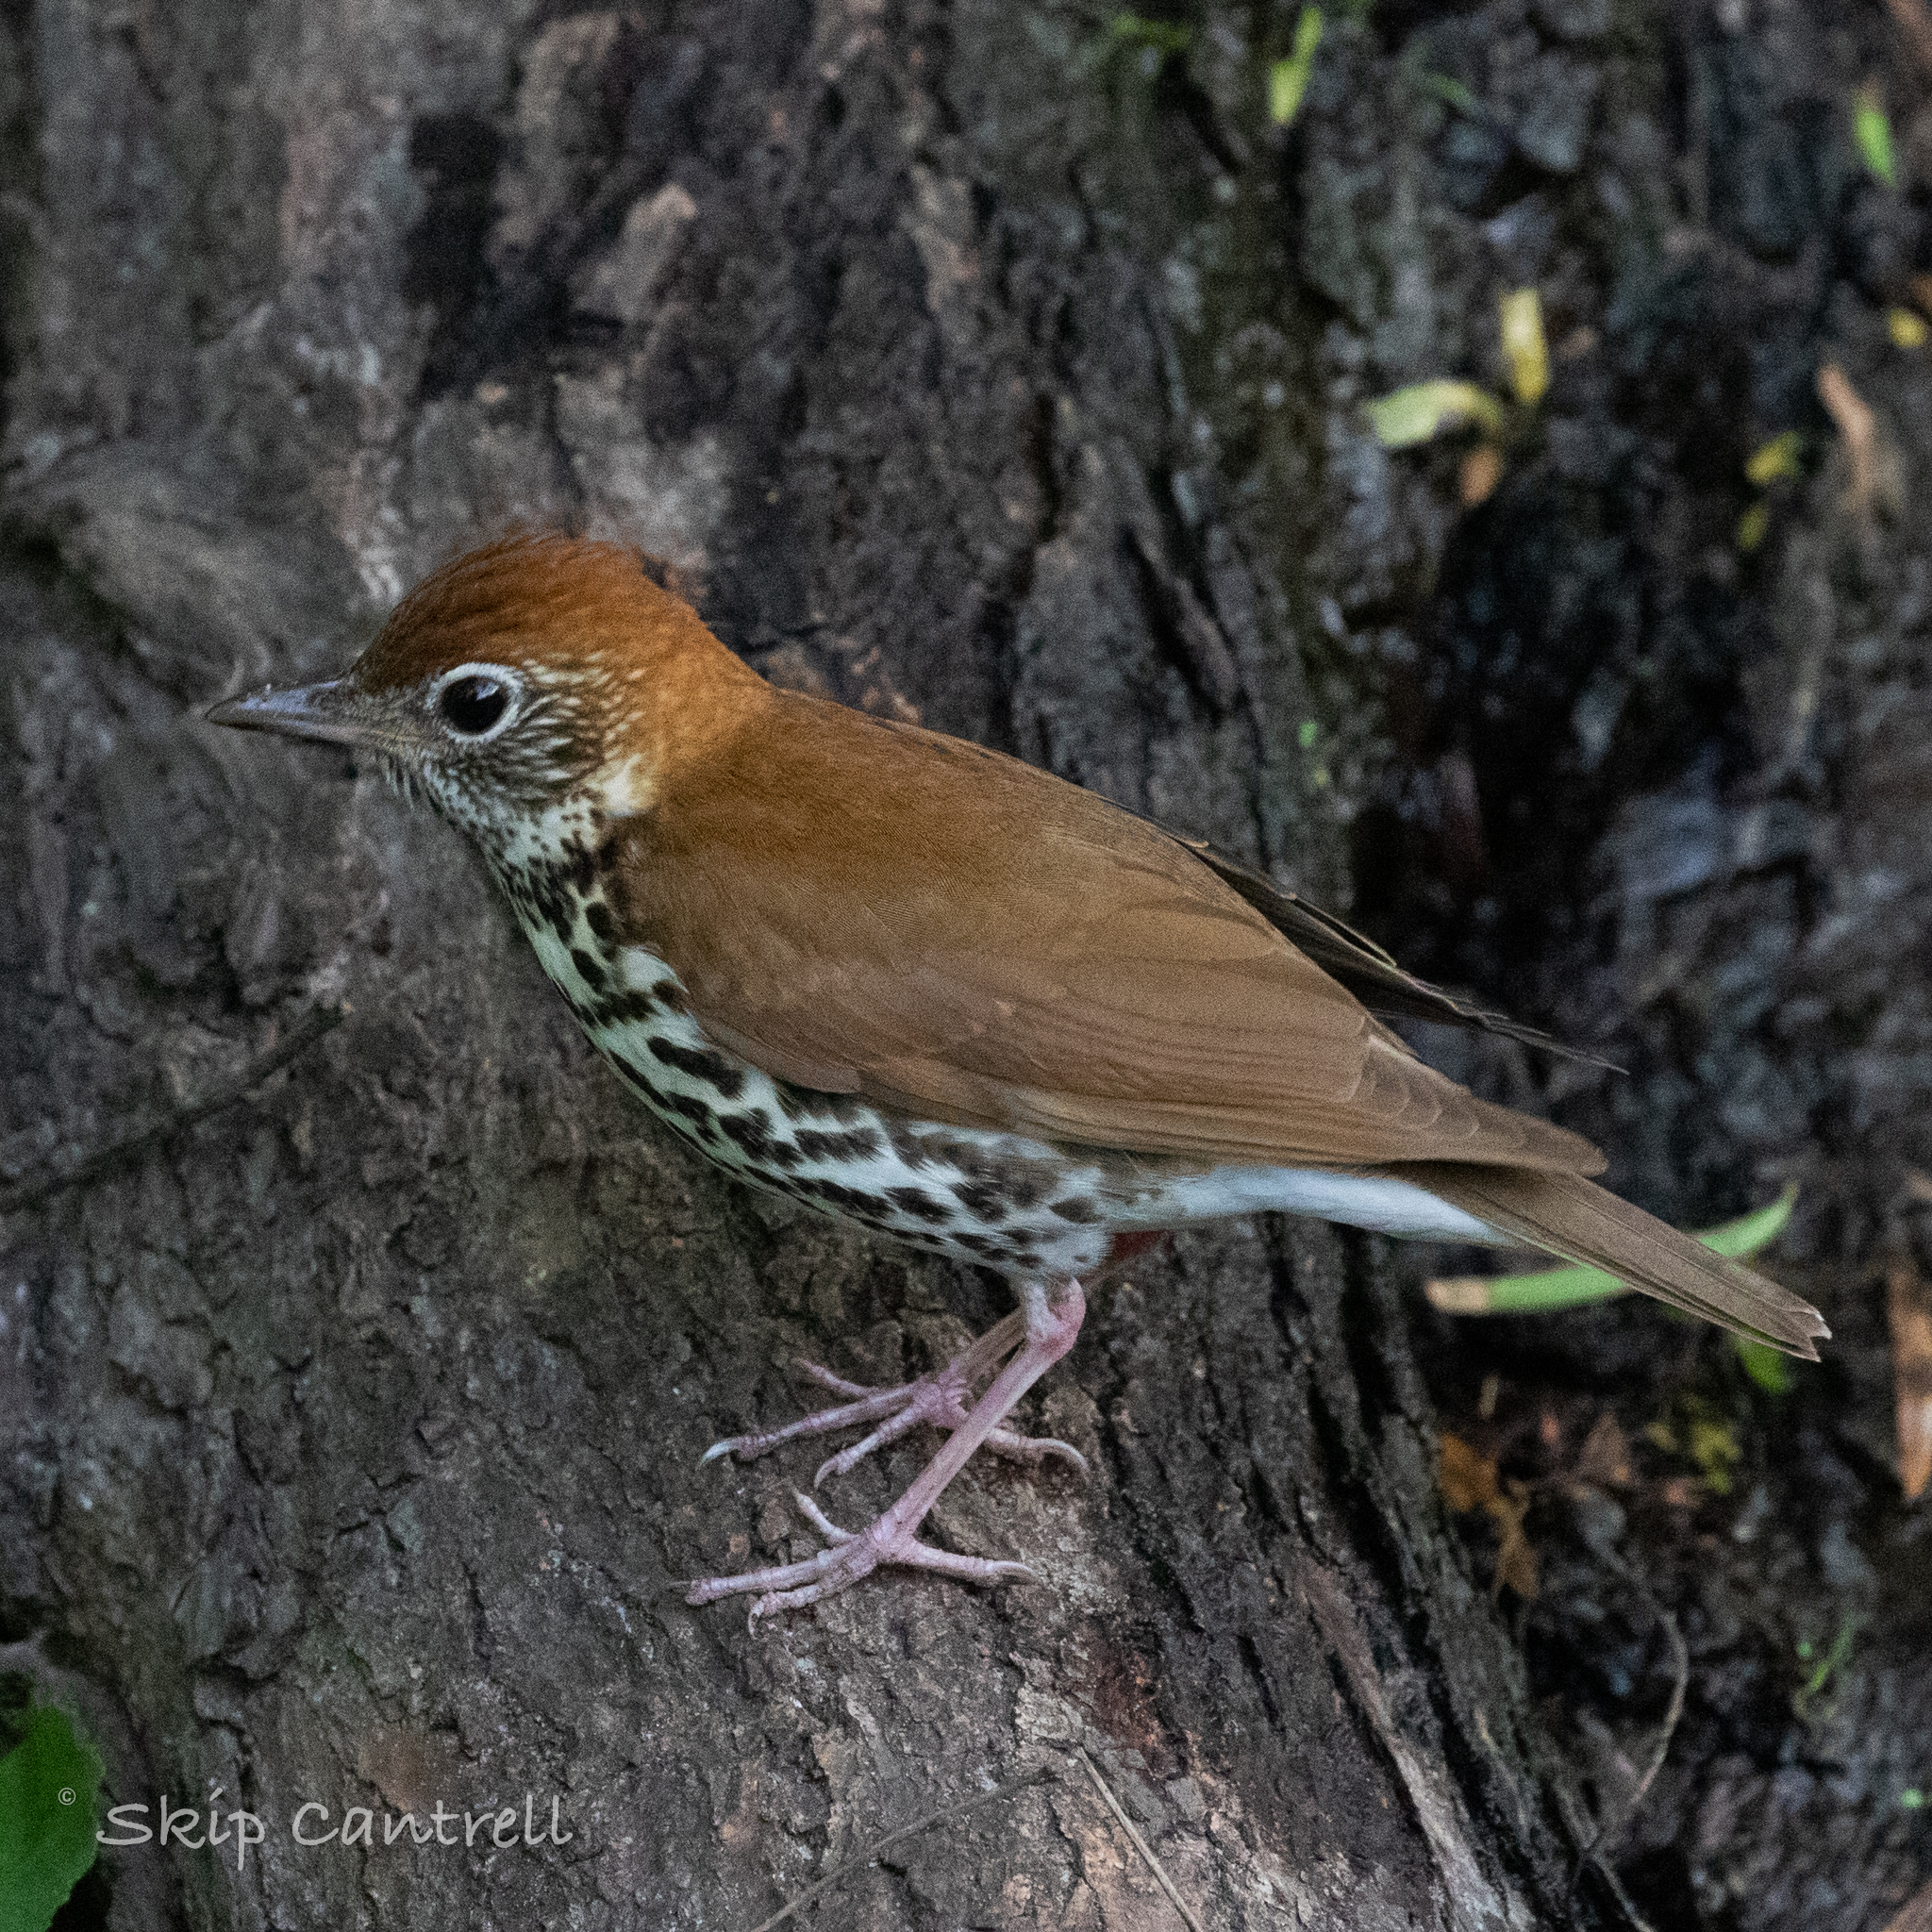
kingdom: Animalia
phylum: Chordata
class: Aves
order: Passeriformes
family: Turdidae
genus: Hylocichla
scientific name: Hylocichla mustelina
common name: Wood thrush
